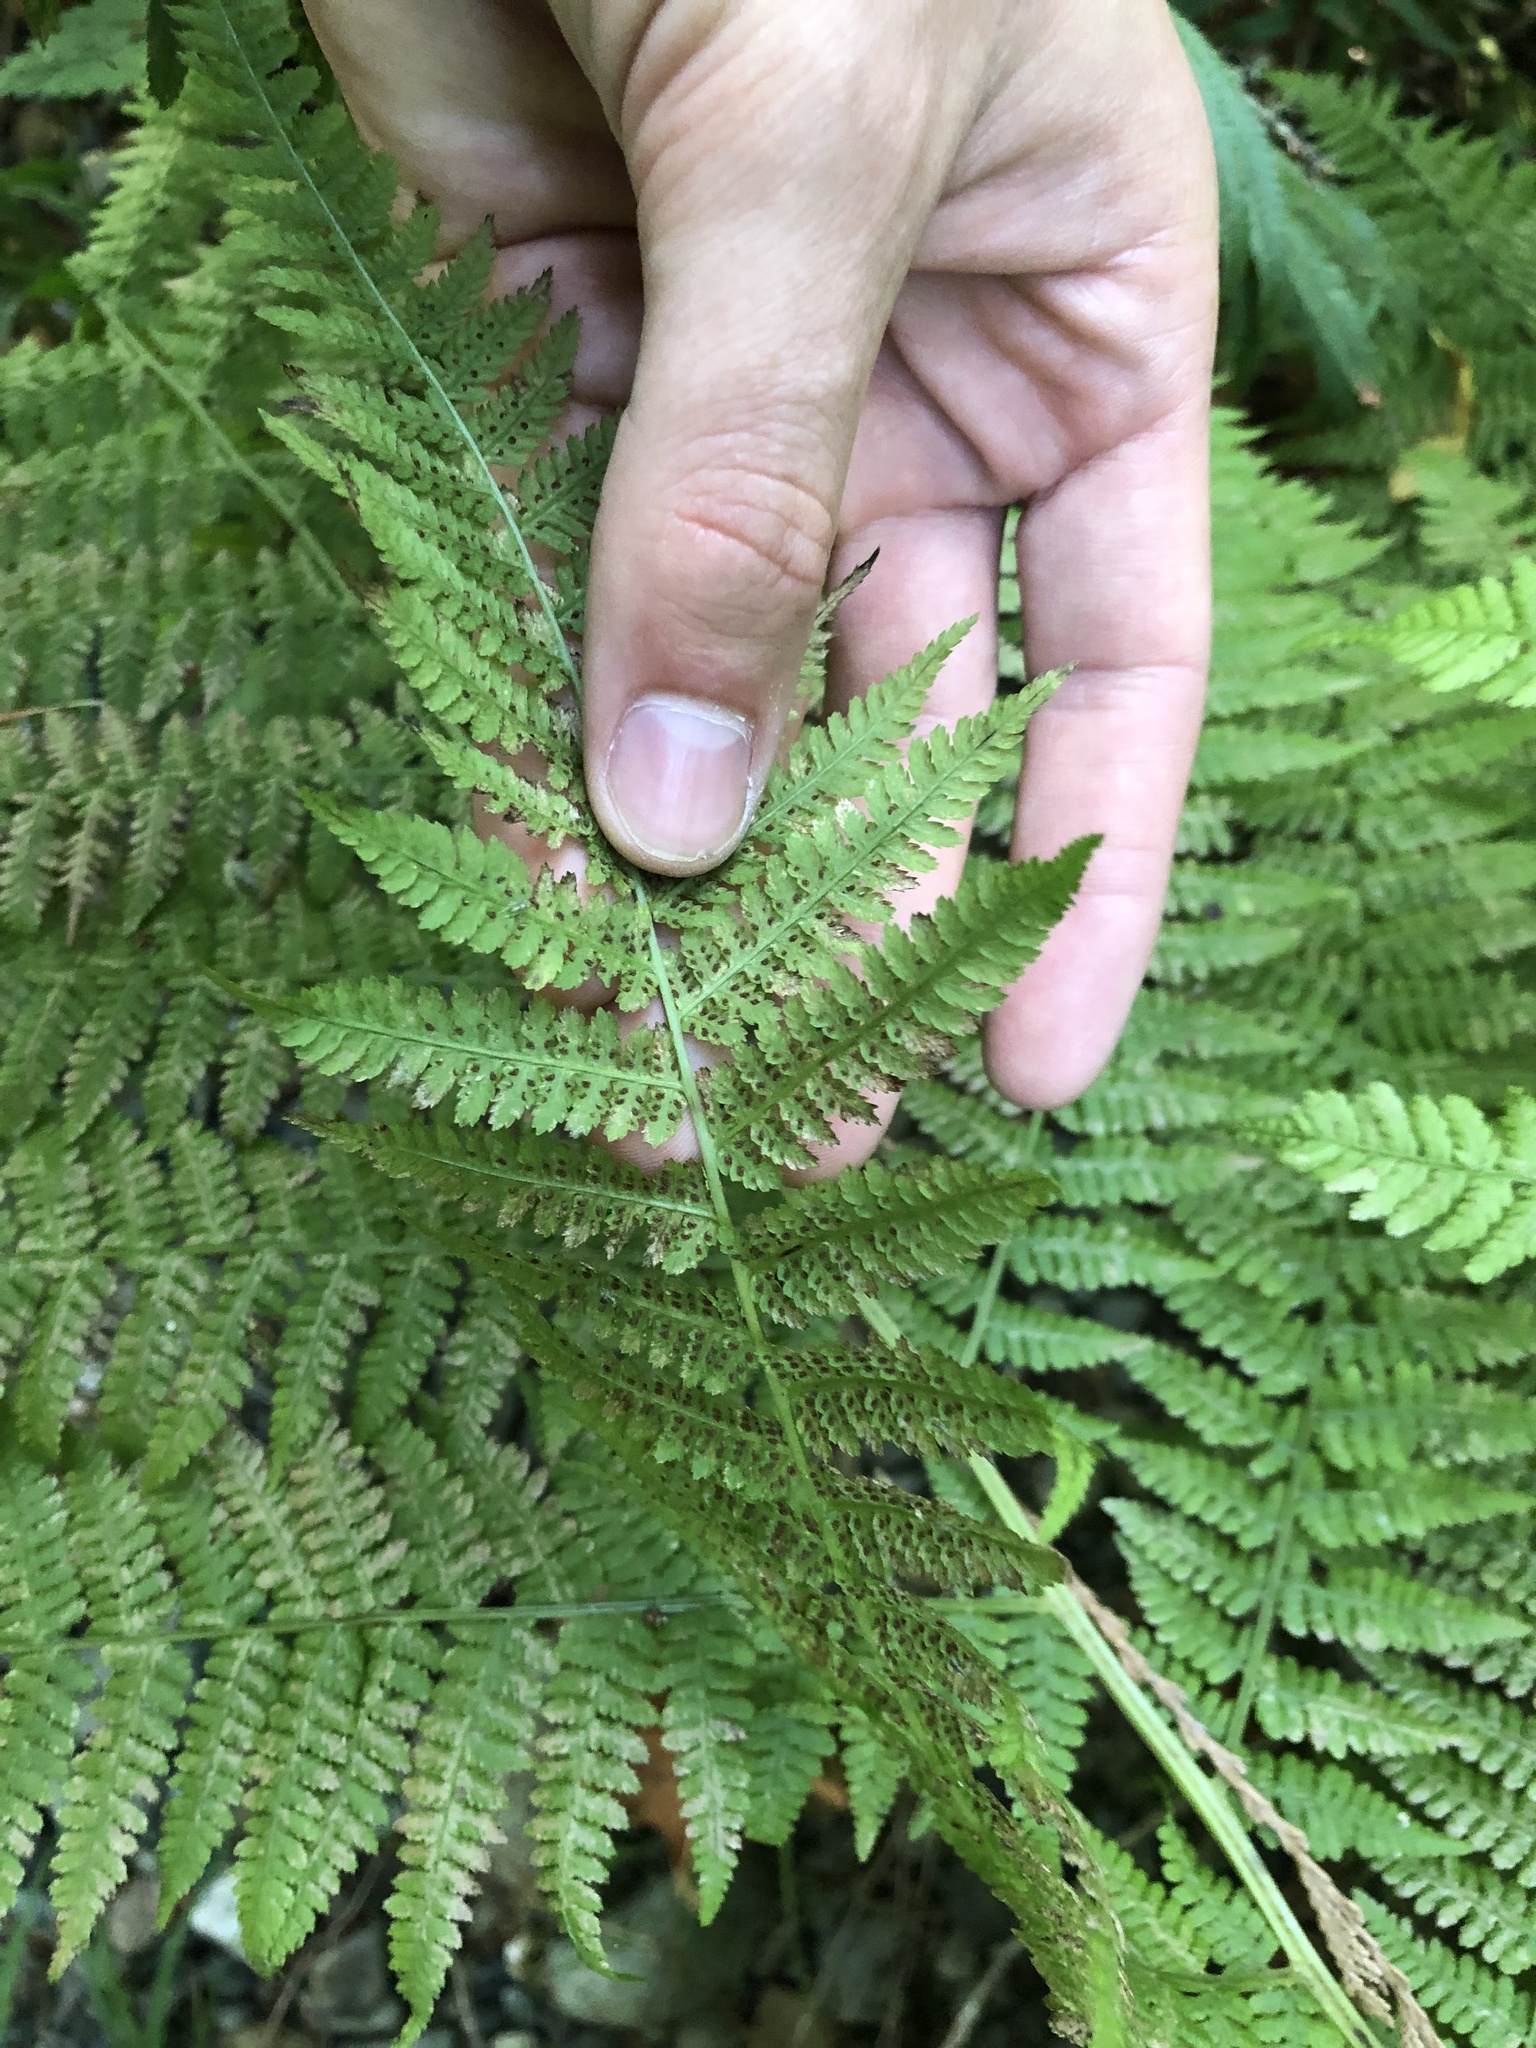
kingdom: Plantae
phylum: Tracheophyta
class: Polypodiopsida
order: Polypodiales
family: Athyriaceae
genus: Athyrium
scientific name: Athyrium filix-femina
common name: Lady fern
